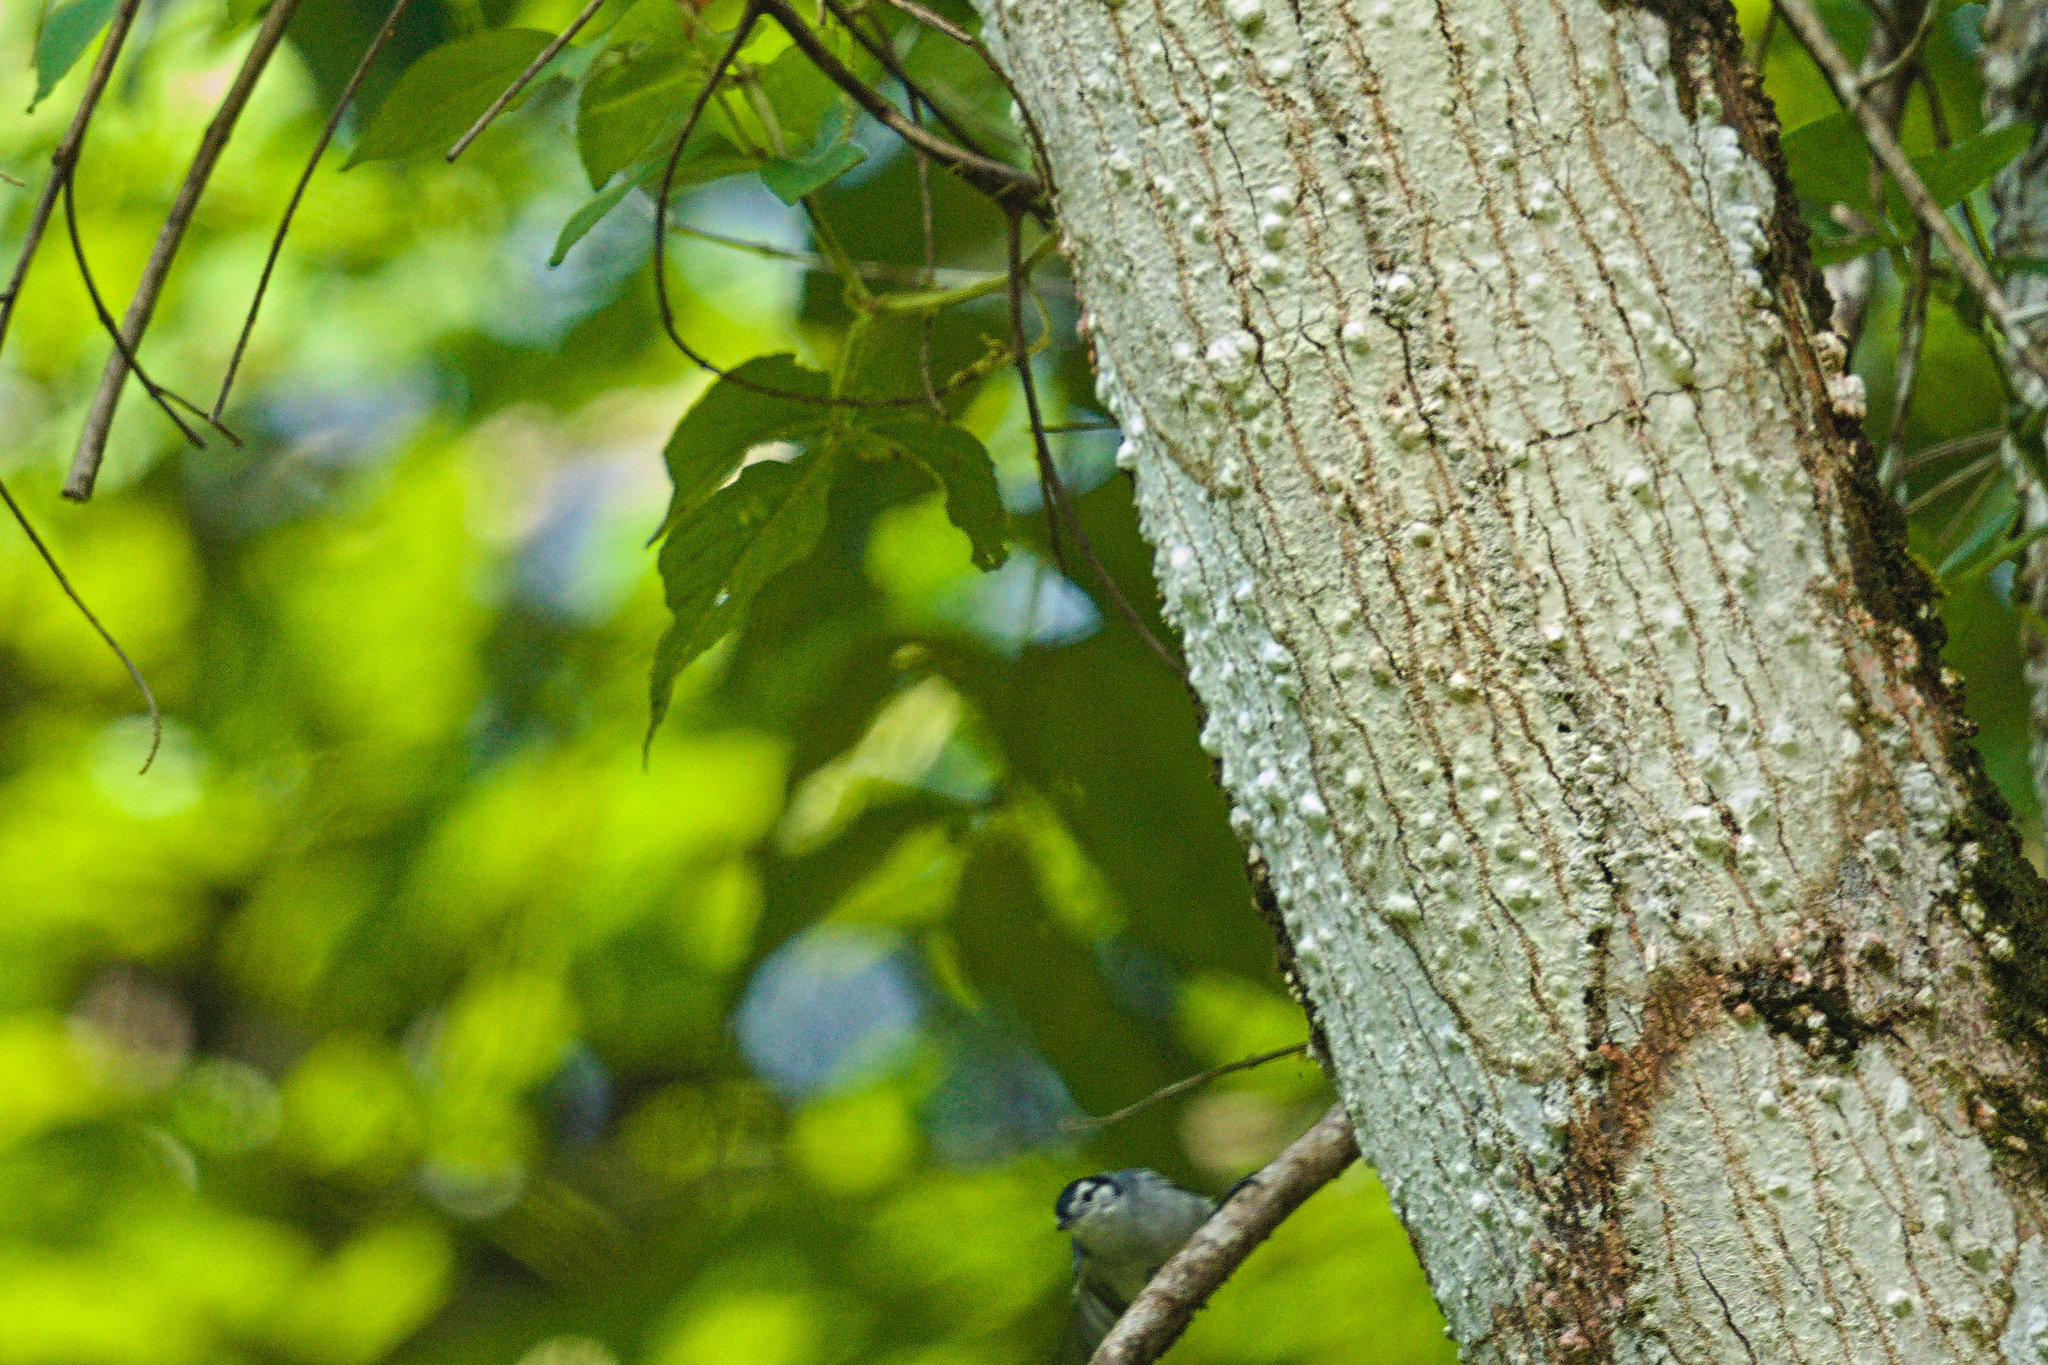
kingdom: Animalia
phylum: Chordata
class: Aves
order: Passeriformes
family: Polioptilidae
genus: Polioptila
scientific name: Polioptila plumbea
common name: Tropical gnatcatcher
